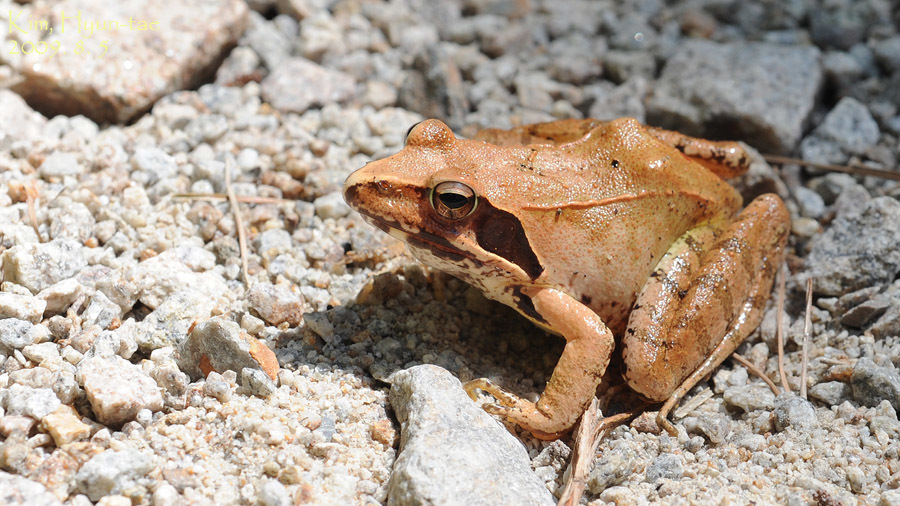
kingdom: Animalia
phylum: Chordata
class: Amphibia
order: Anura
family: Ranidae
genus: Rana
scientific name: Rana uenoi
